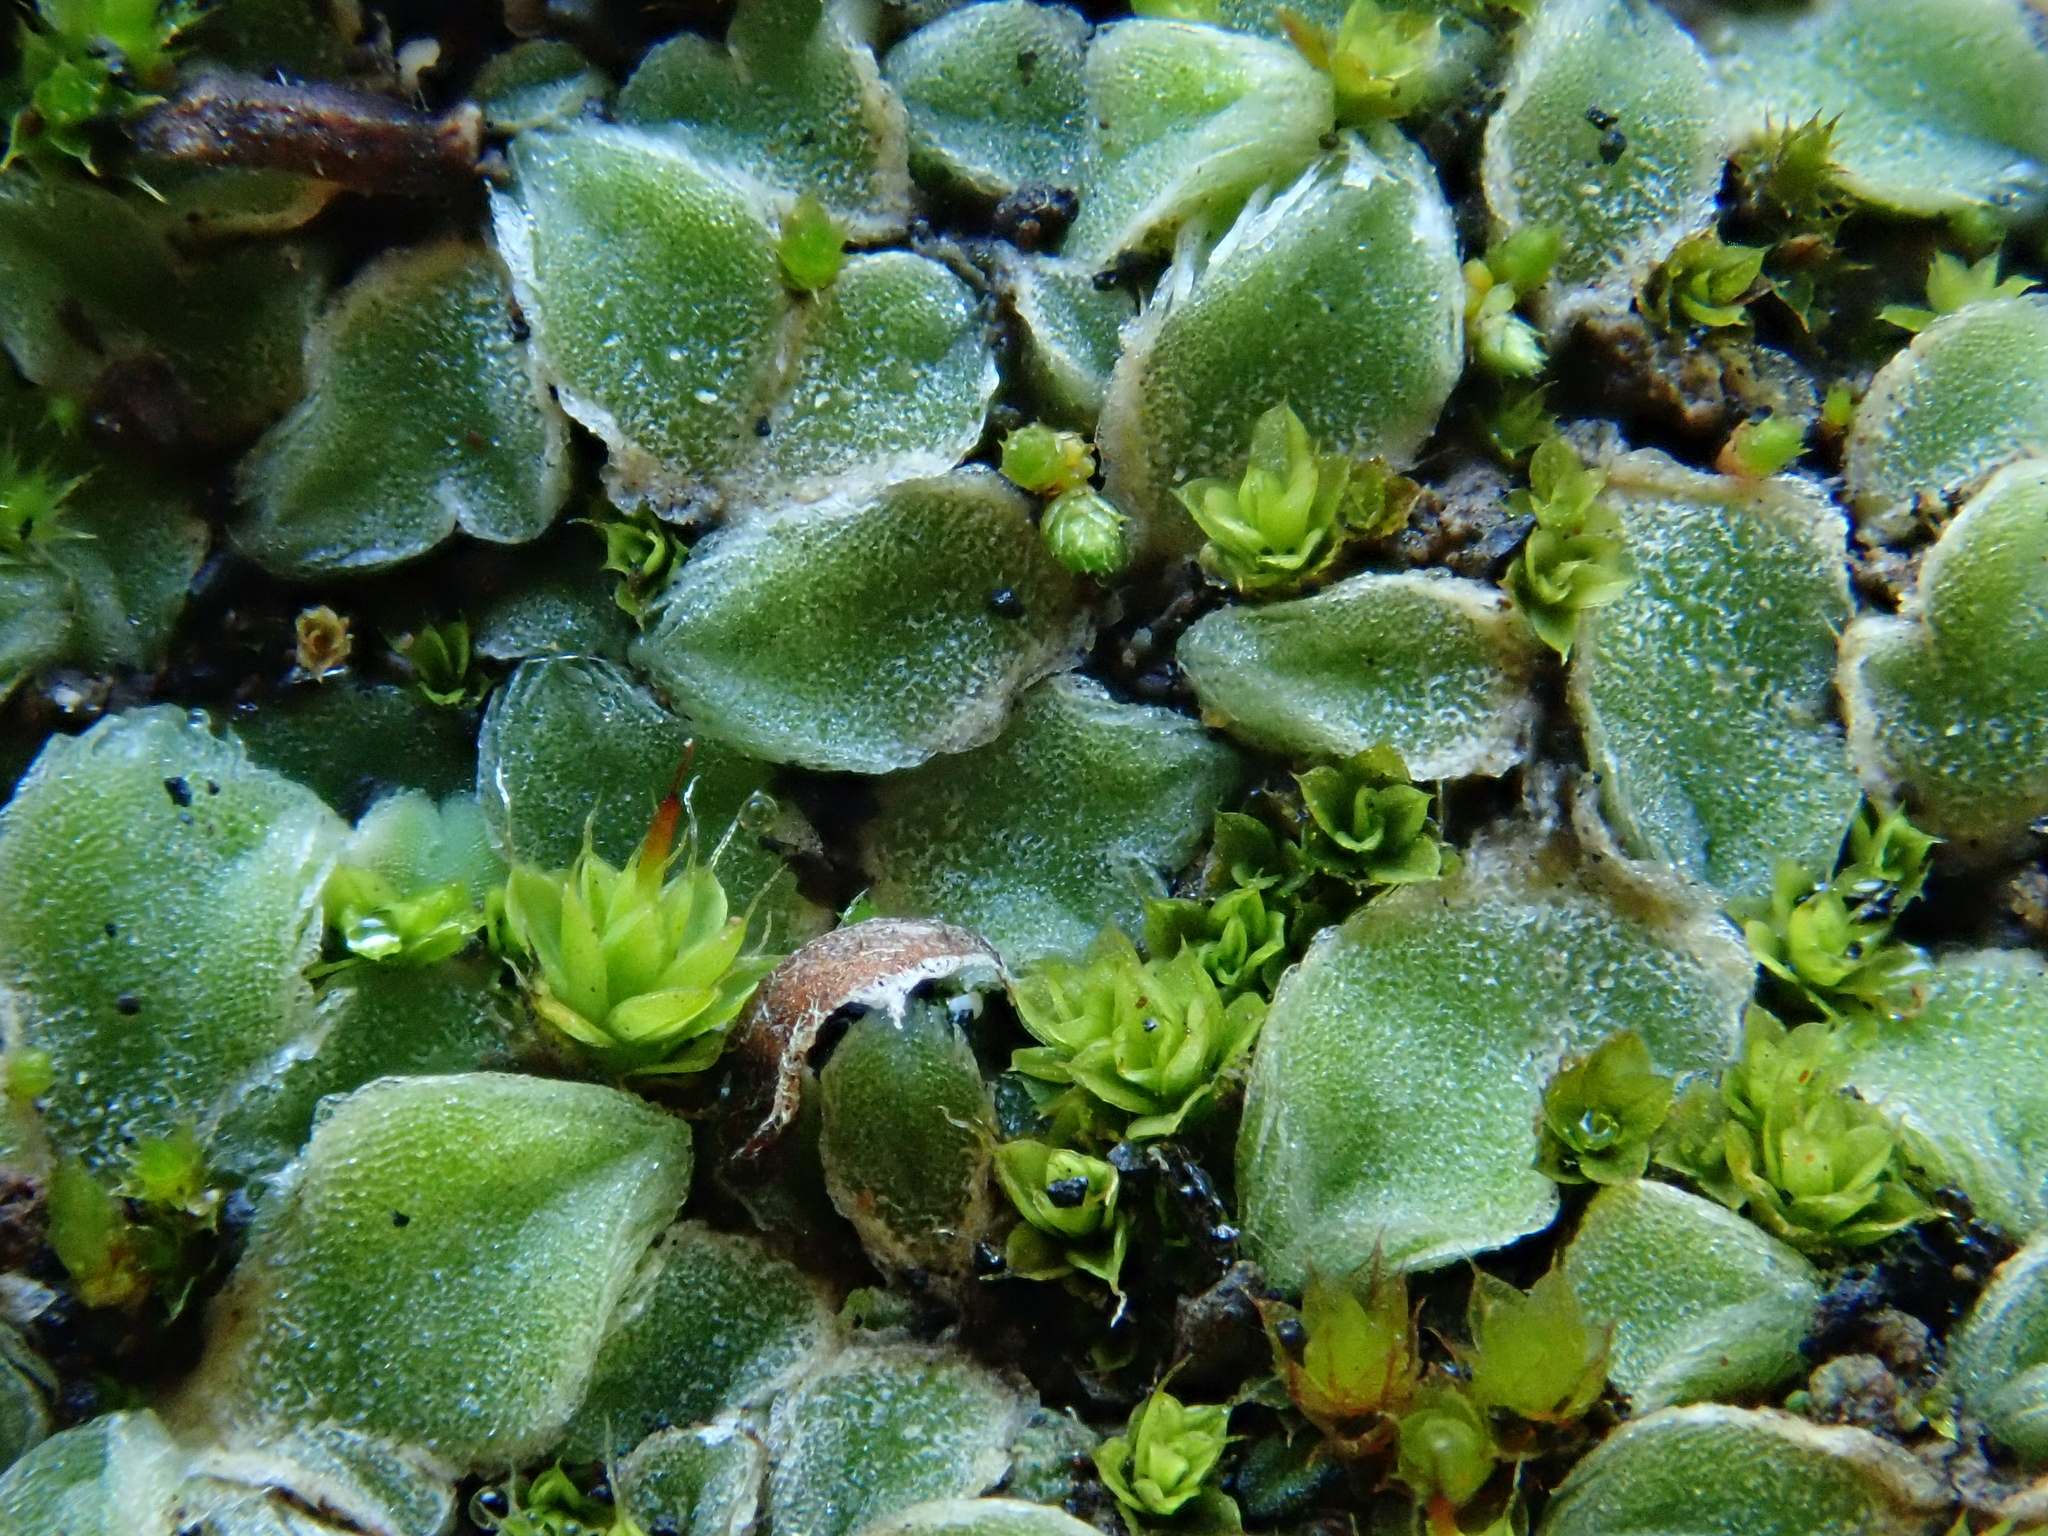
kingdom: Plantae
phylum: Marchantiophyta
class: Marchantiopsida
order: Marchantiales
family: Ricciaceae
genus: Riccia
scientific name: Riccia boumanii
